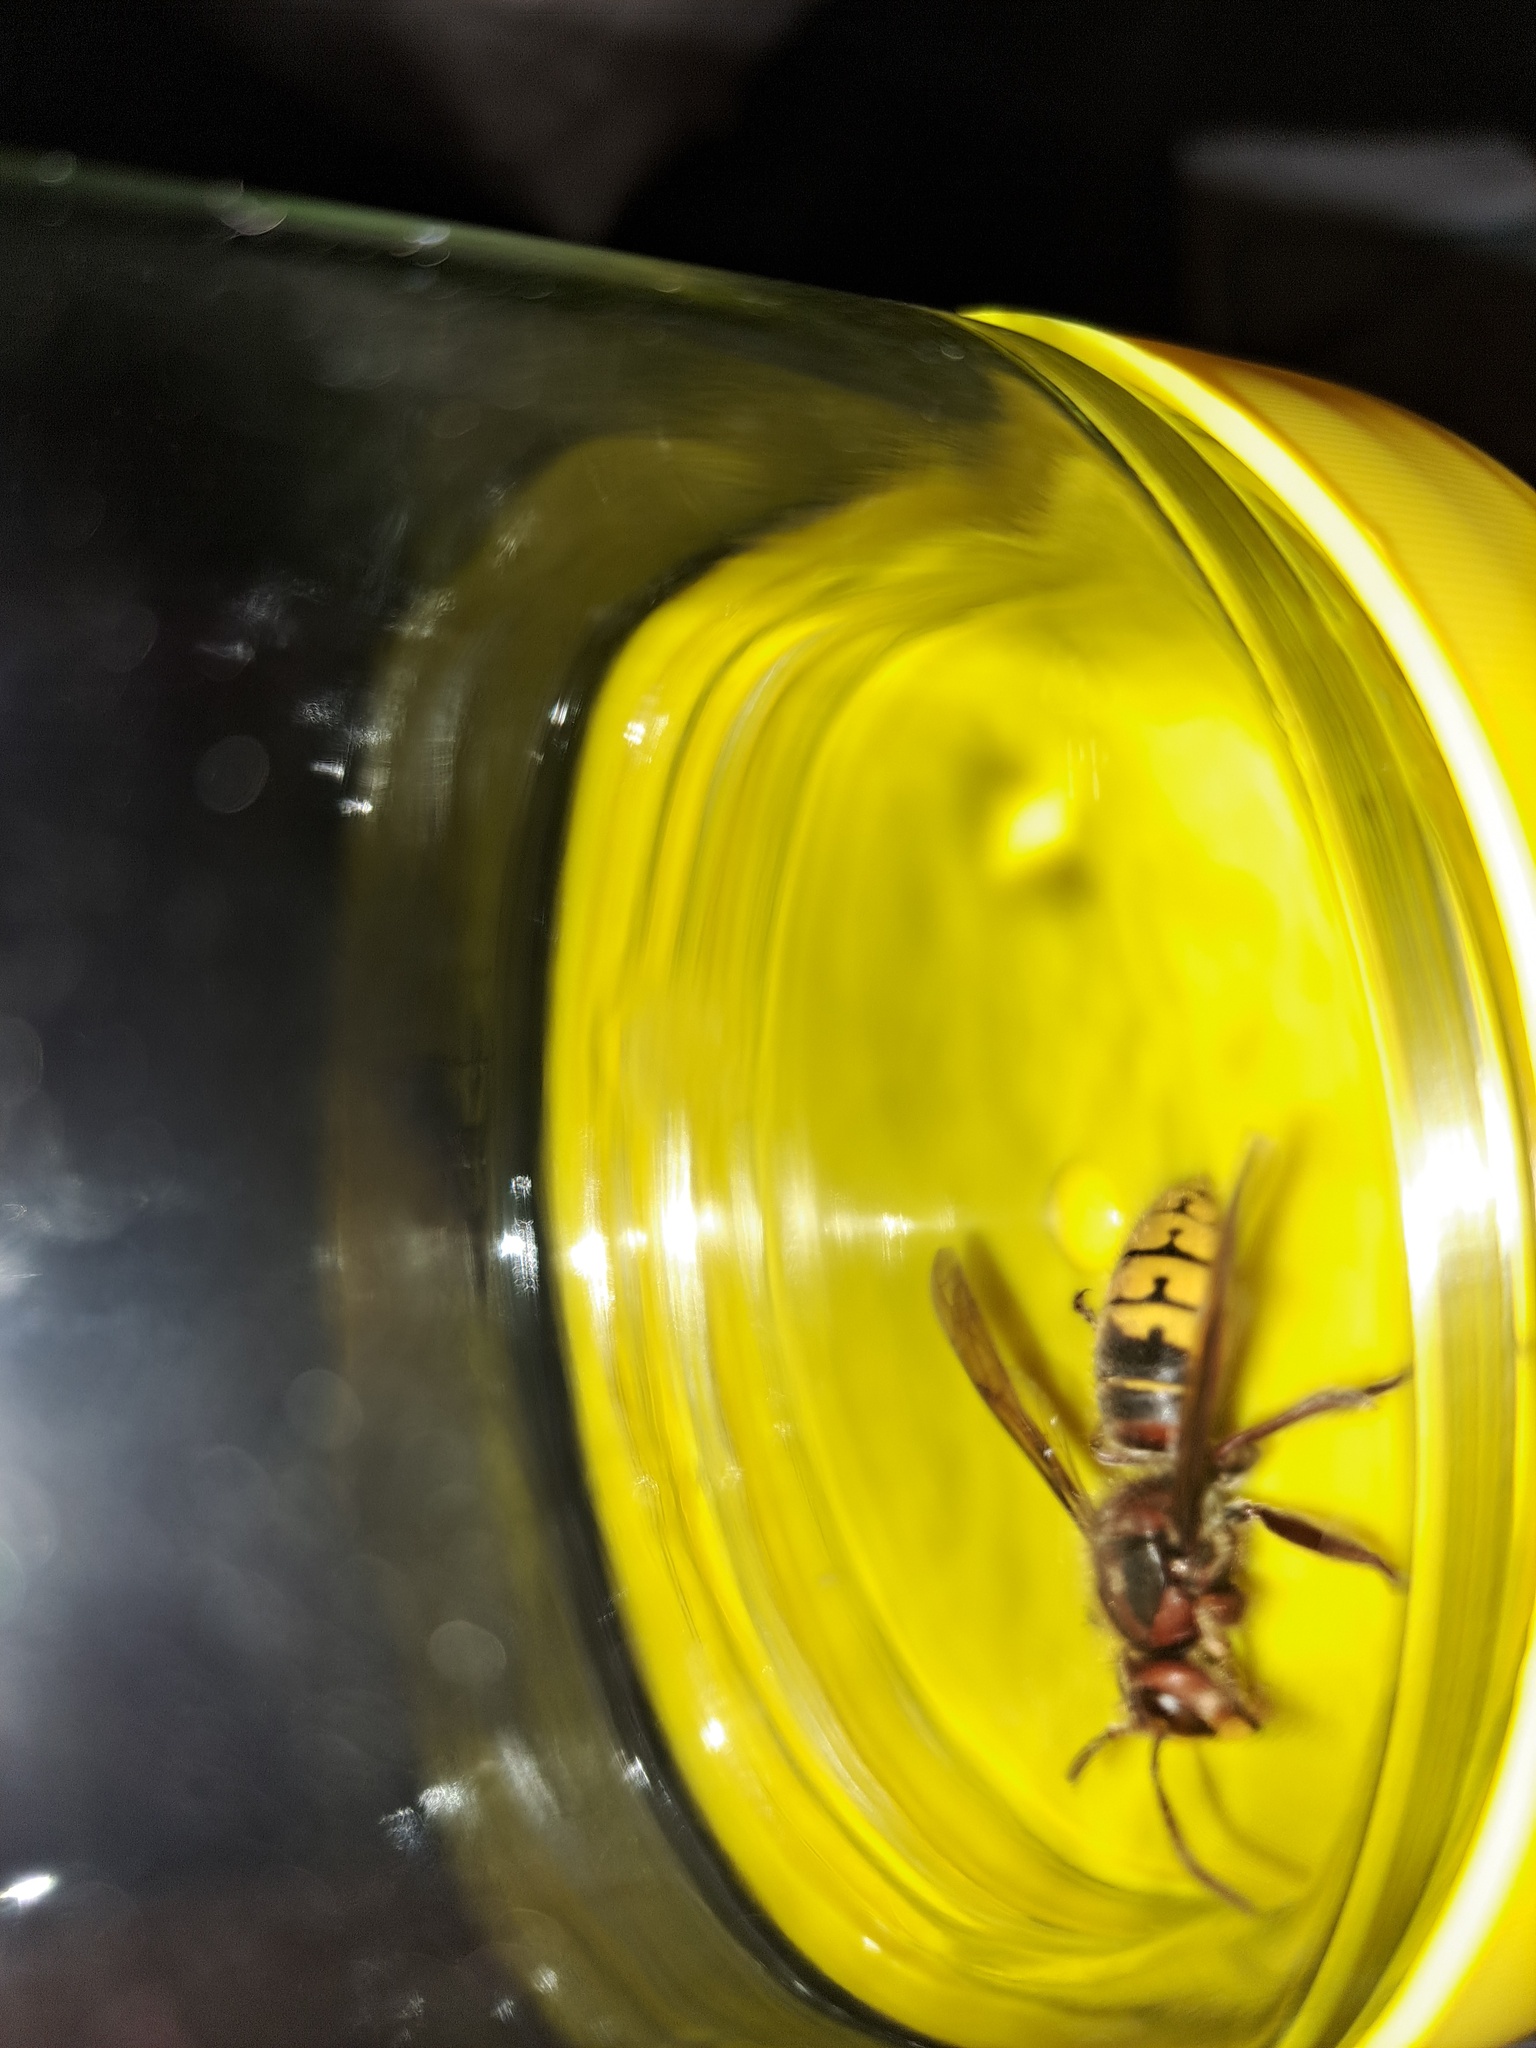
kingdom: Animalia
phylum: Arthropoda
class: Insecta
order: Hymenoptera
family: Vespidae
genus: Vespa
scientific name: Vespa crabro
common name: Hornet
